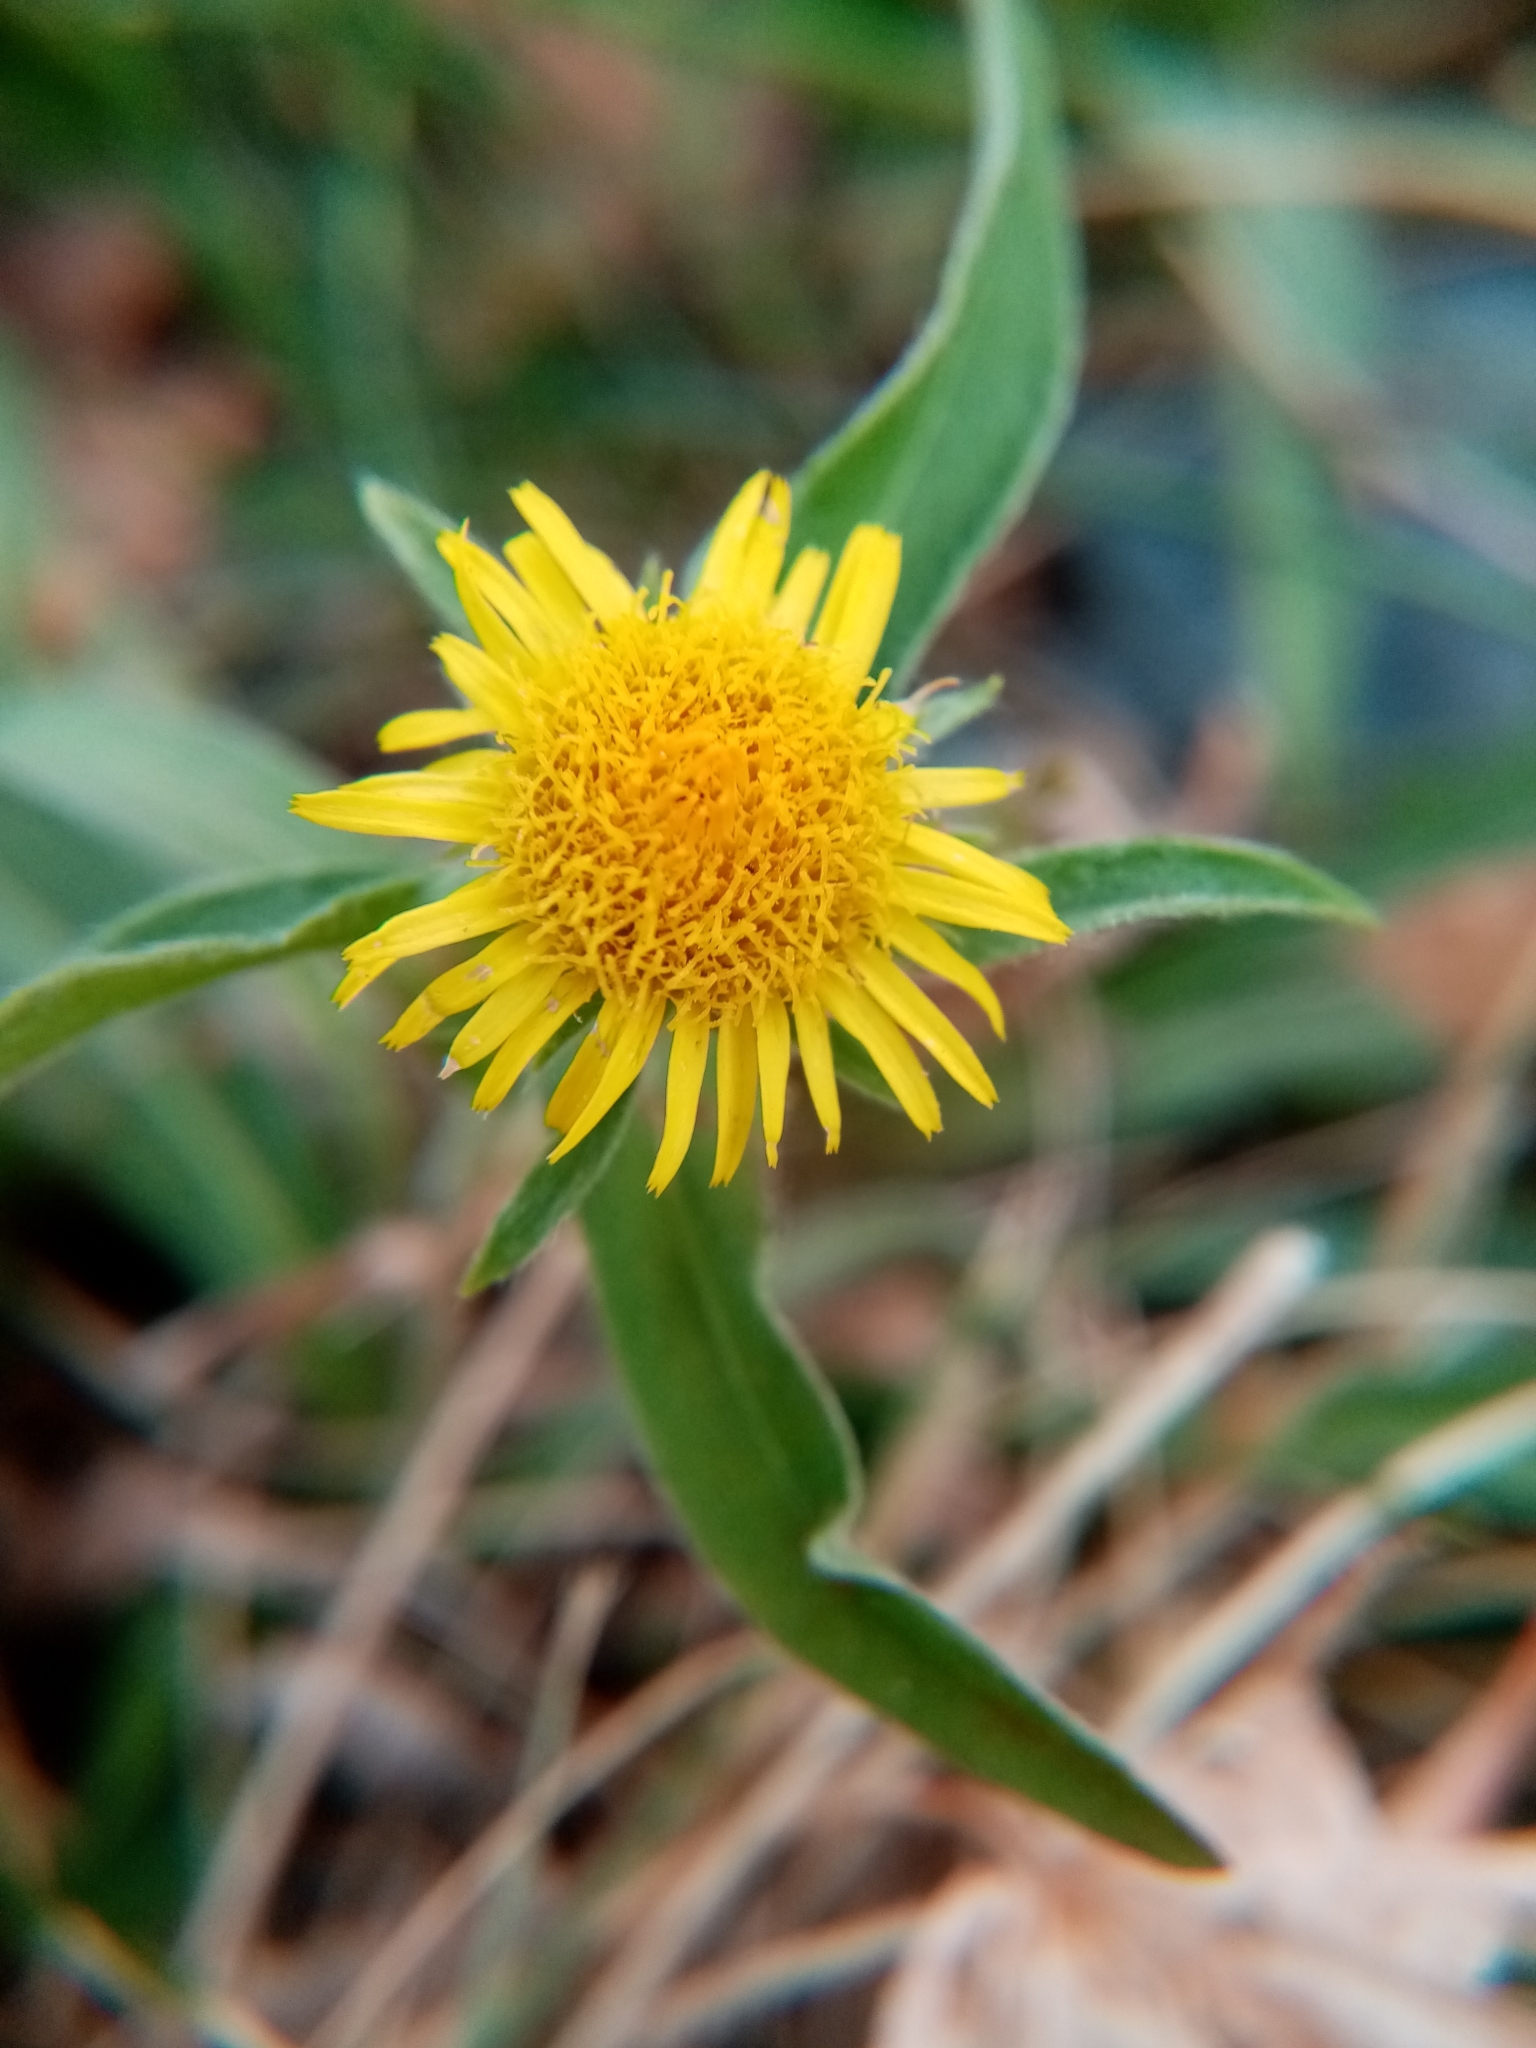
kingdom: Plantae
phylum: Tracheophyta
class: Magnoliopsida
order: Asterales
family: Asteraceae
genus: Pentanema
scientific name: Pentanema britannicum
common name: British elecampane
